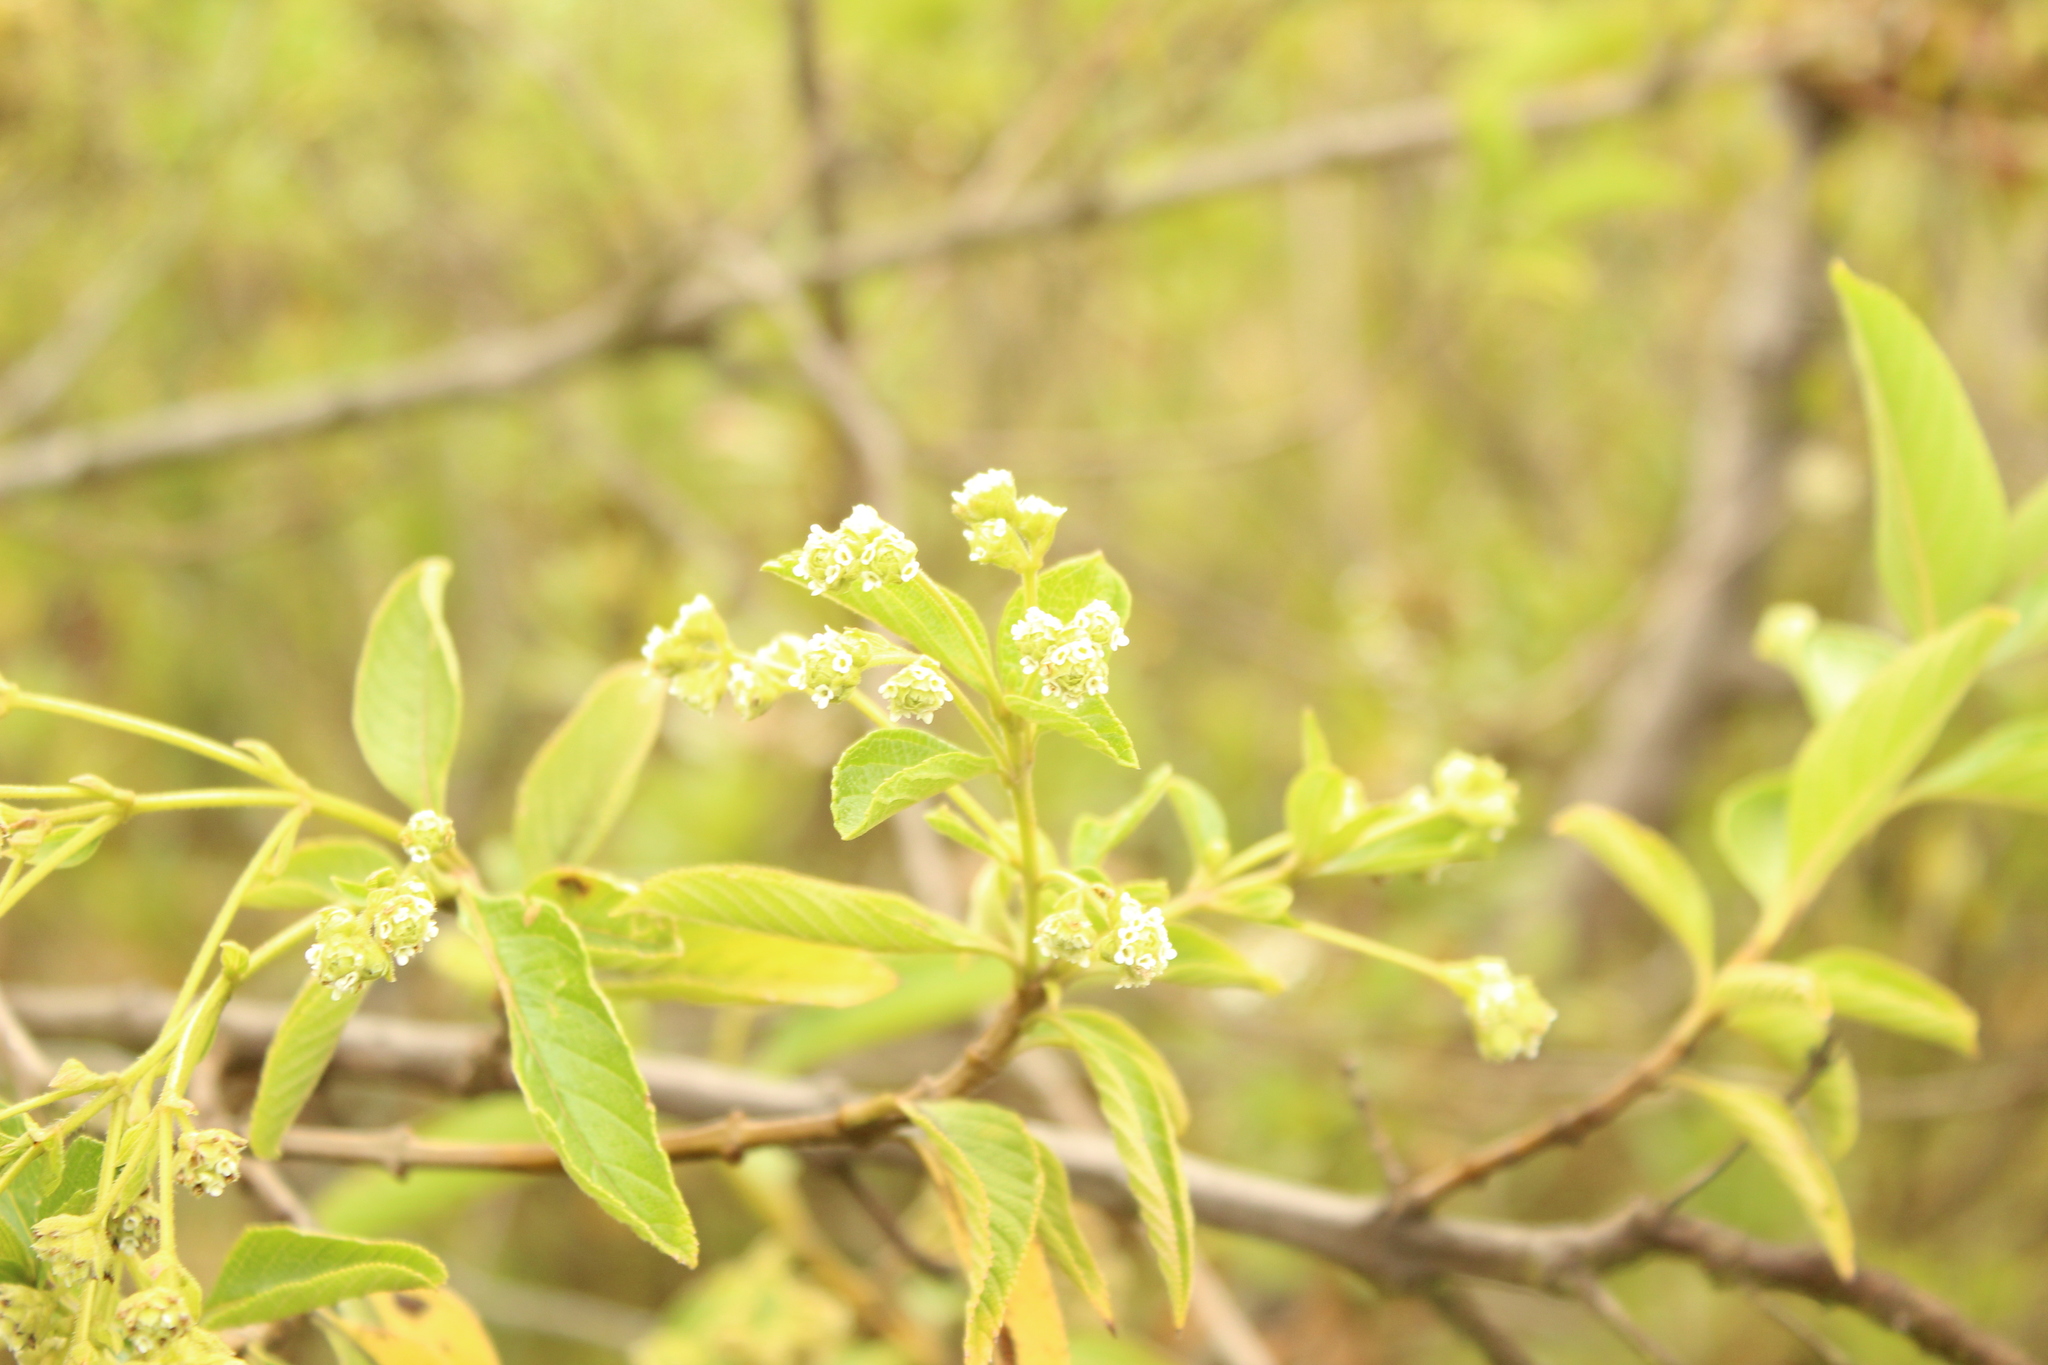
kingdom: Plantae
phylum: Tracheophyta
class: Magnoliopsida
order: Lamiales
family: Verbenaceae
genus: Lippia
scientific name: Lippia hirsuta
